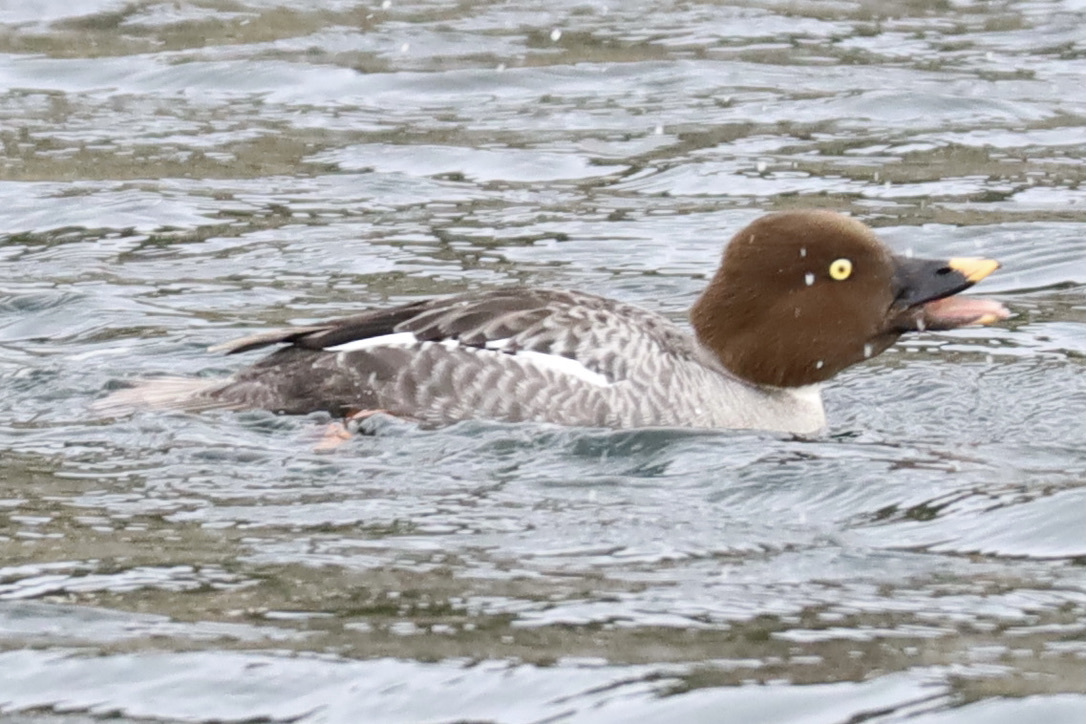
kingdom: Animalia
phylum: Chordata
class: Aves
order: Anseriformes
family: Anatidae
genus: Bucephala
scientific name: Bucephala clangula
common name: Common goldeneye
